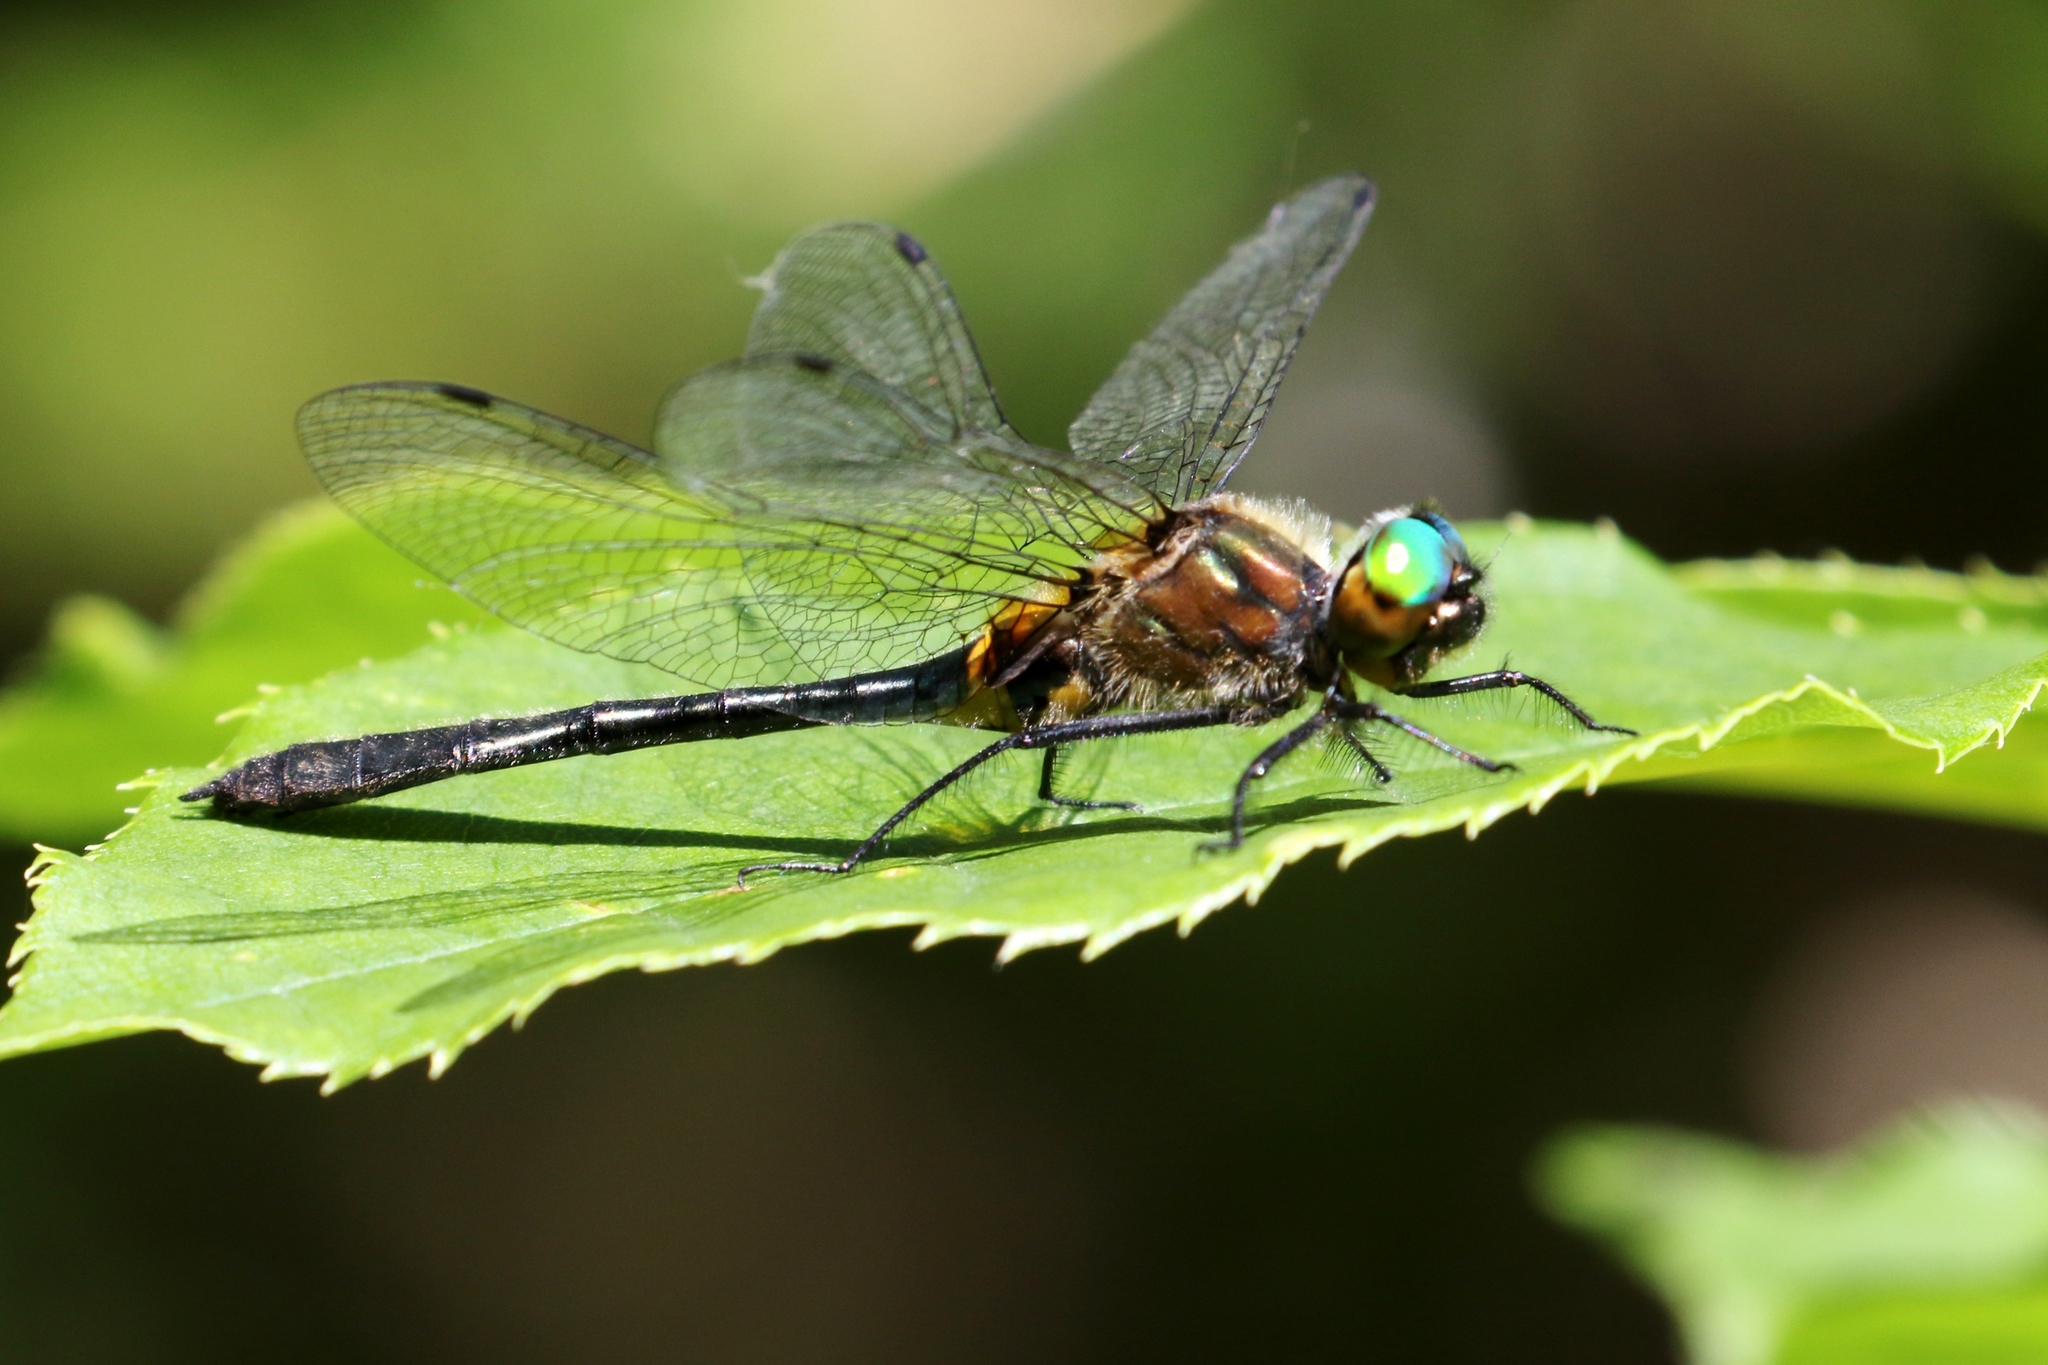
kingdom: Animalia
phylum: Arthropoda
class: Insecta
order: Odonata
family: Corduliidae
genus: Dorocordulia
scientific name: Dorocordulia libera
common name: Racket-tailed emerald
